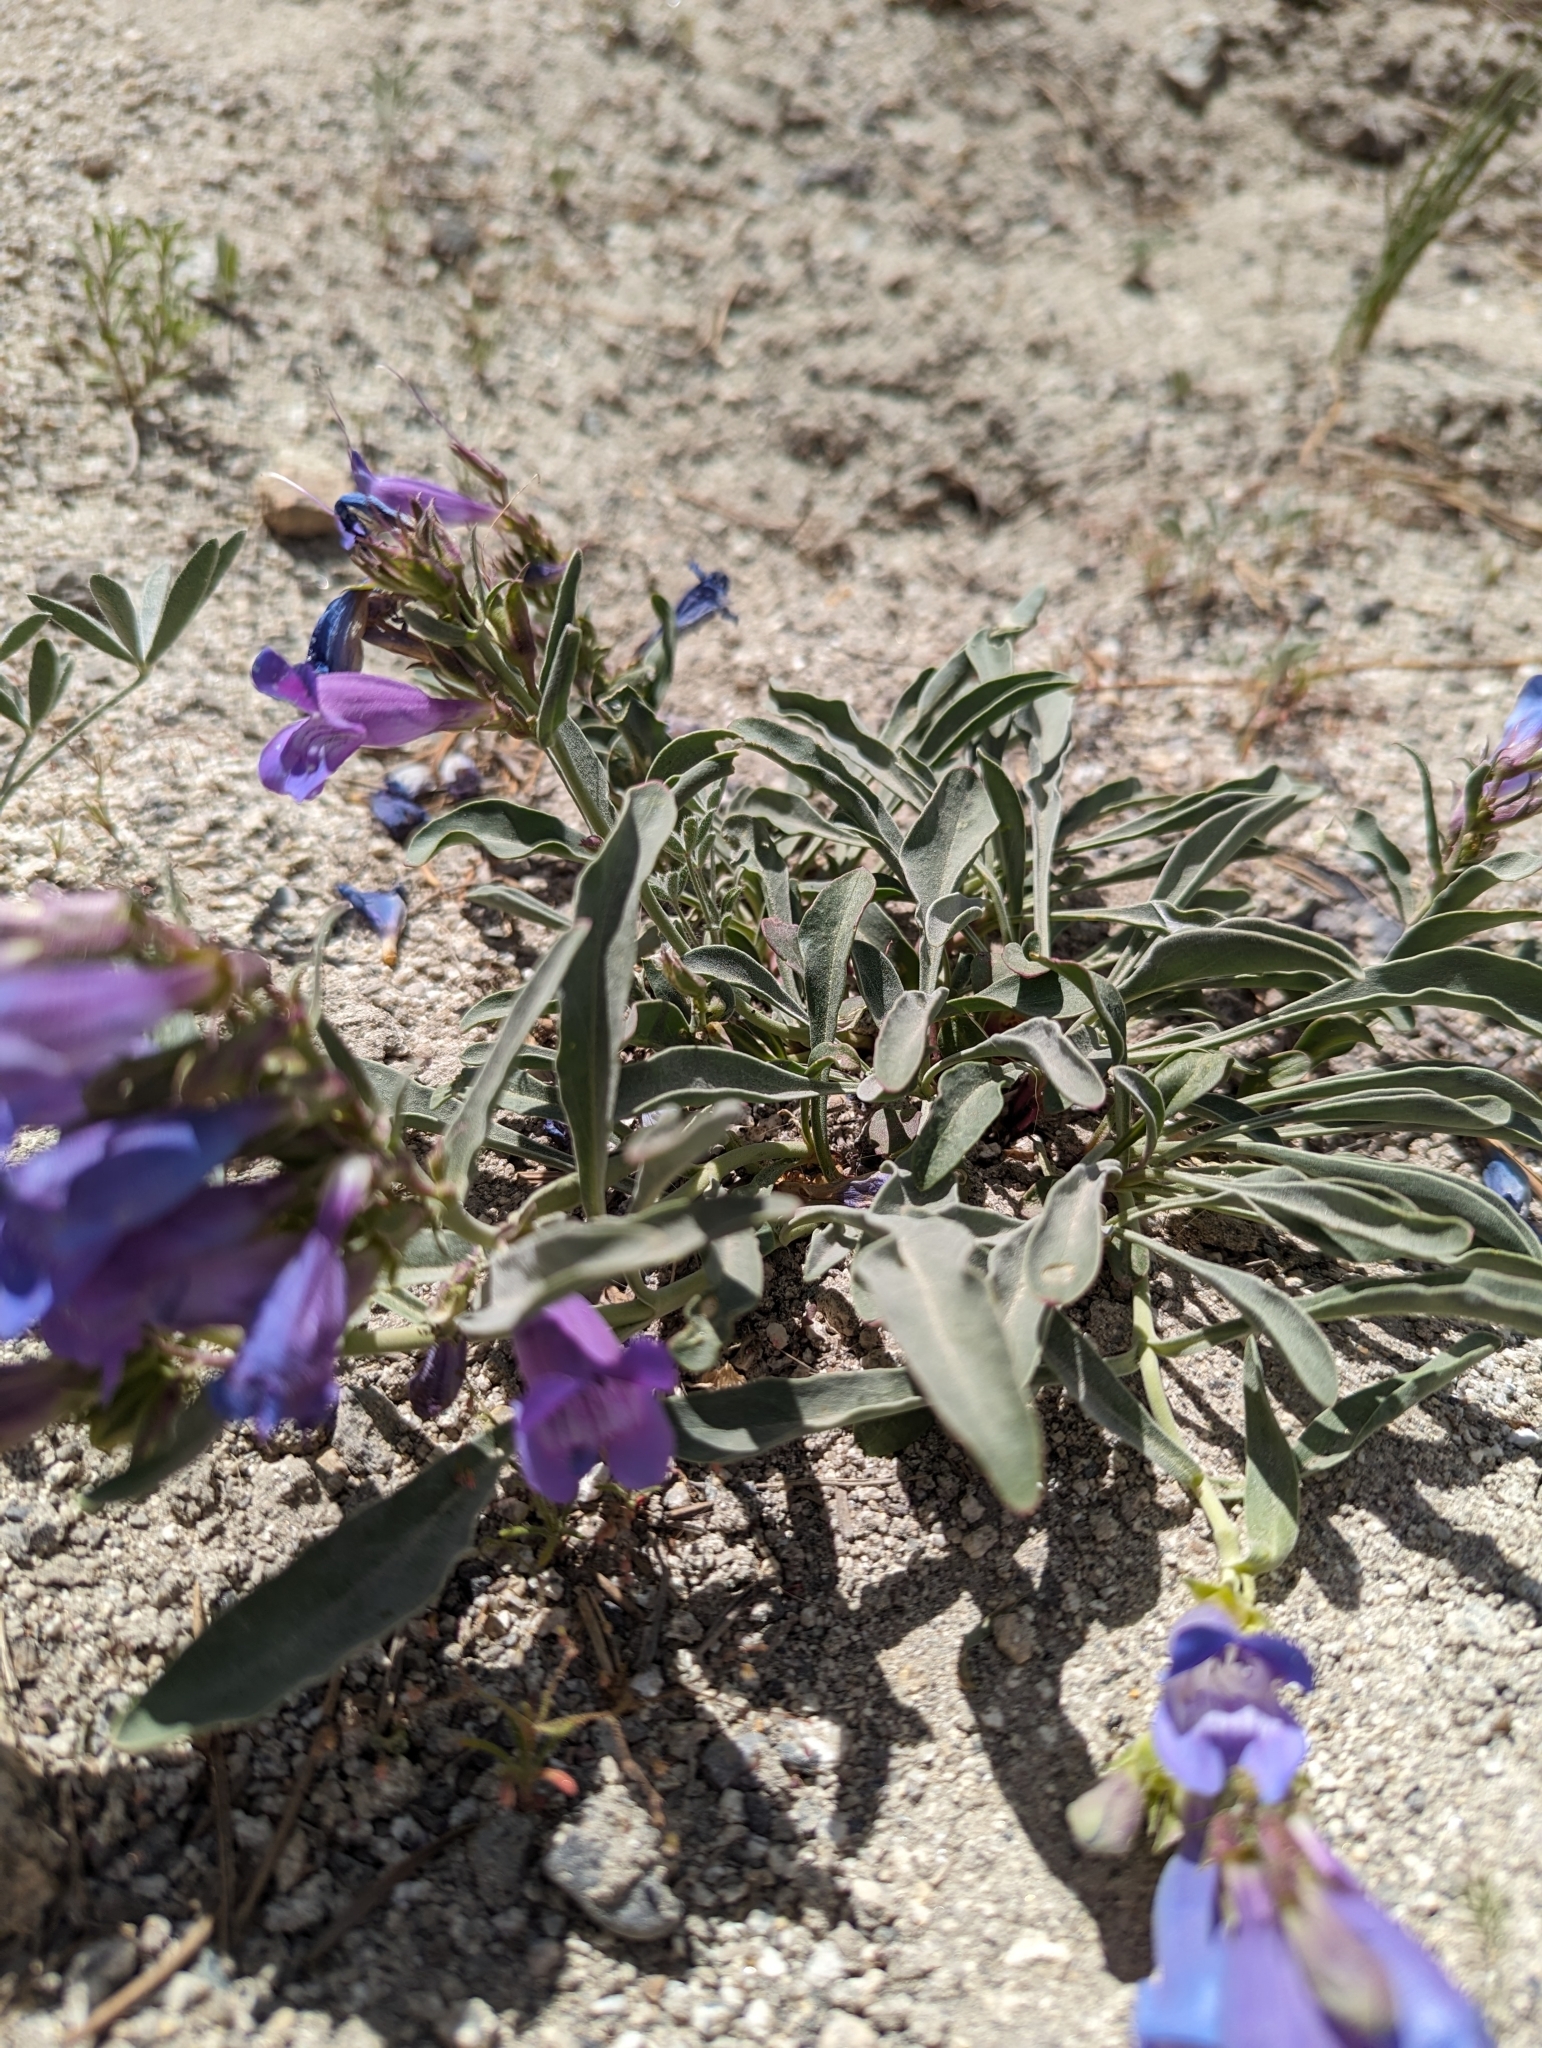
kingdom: Plantae
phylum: Tracheophyta
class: Magnoliopsida
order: Lamiales
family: Plantaginaceae
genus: Penstemon
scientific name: Penstemon speciosus
